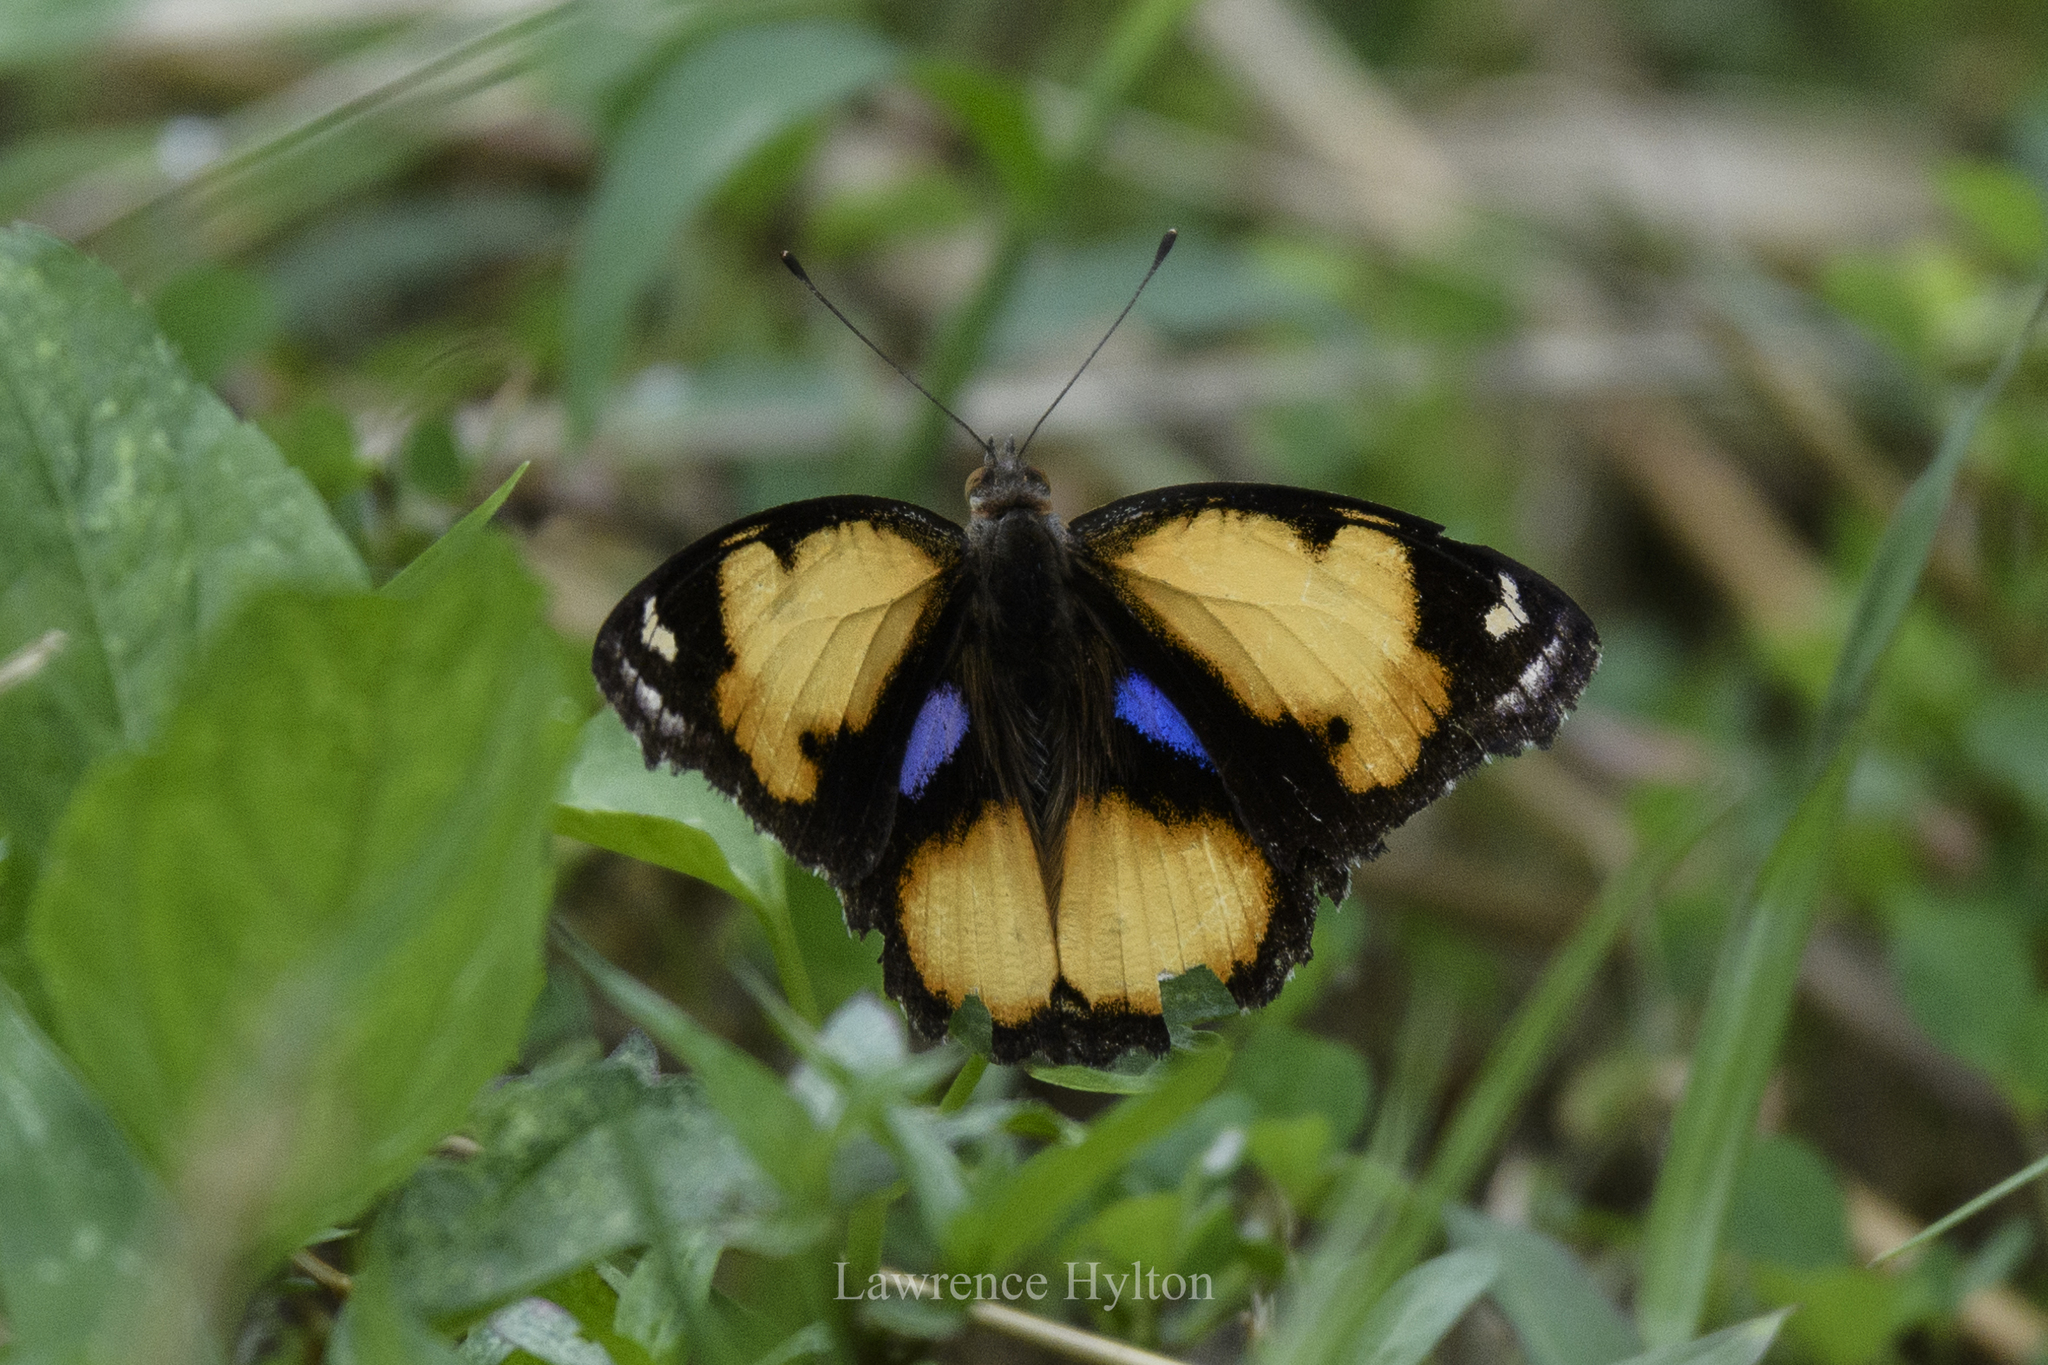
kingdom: Animalia
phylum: Arthropoda
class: Insecta
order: Lepidoptera
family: Nymphalidae
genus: Junonia
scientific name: Junonia hierta
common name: Yellow pansy
